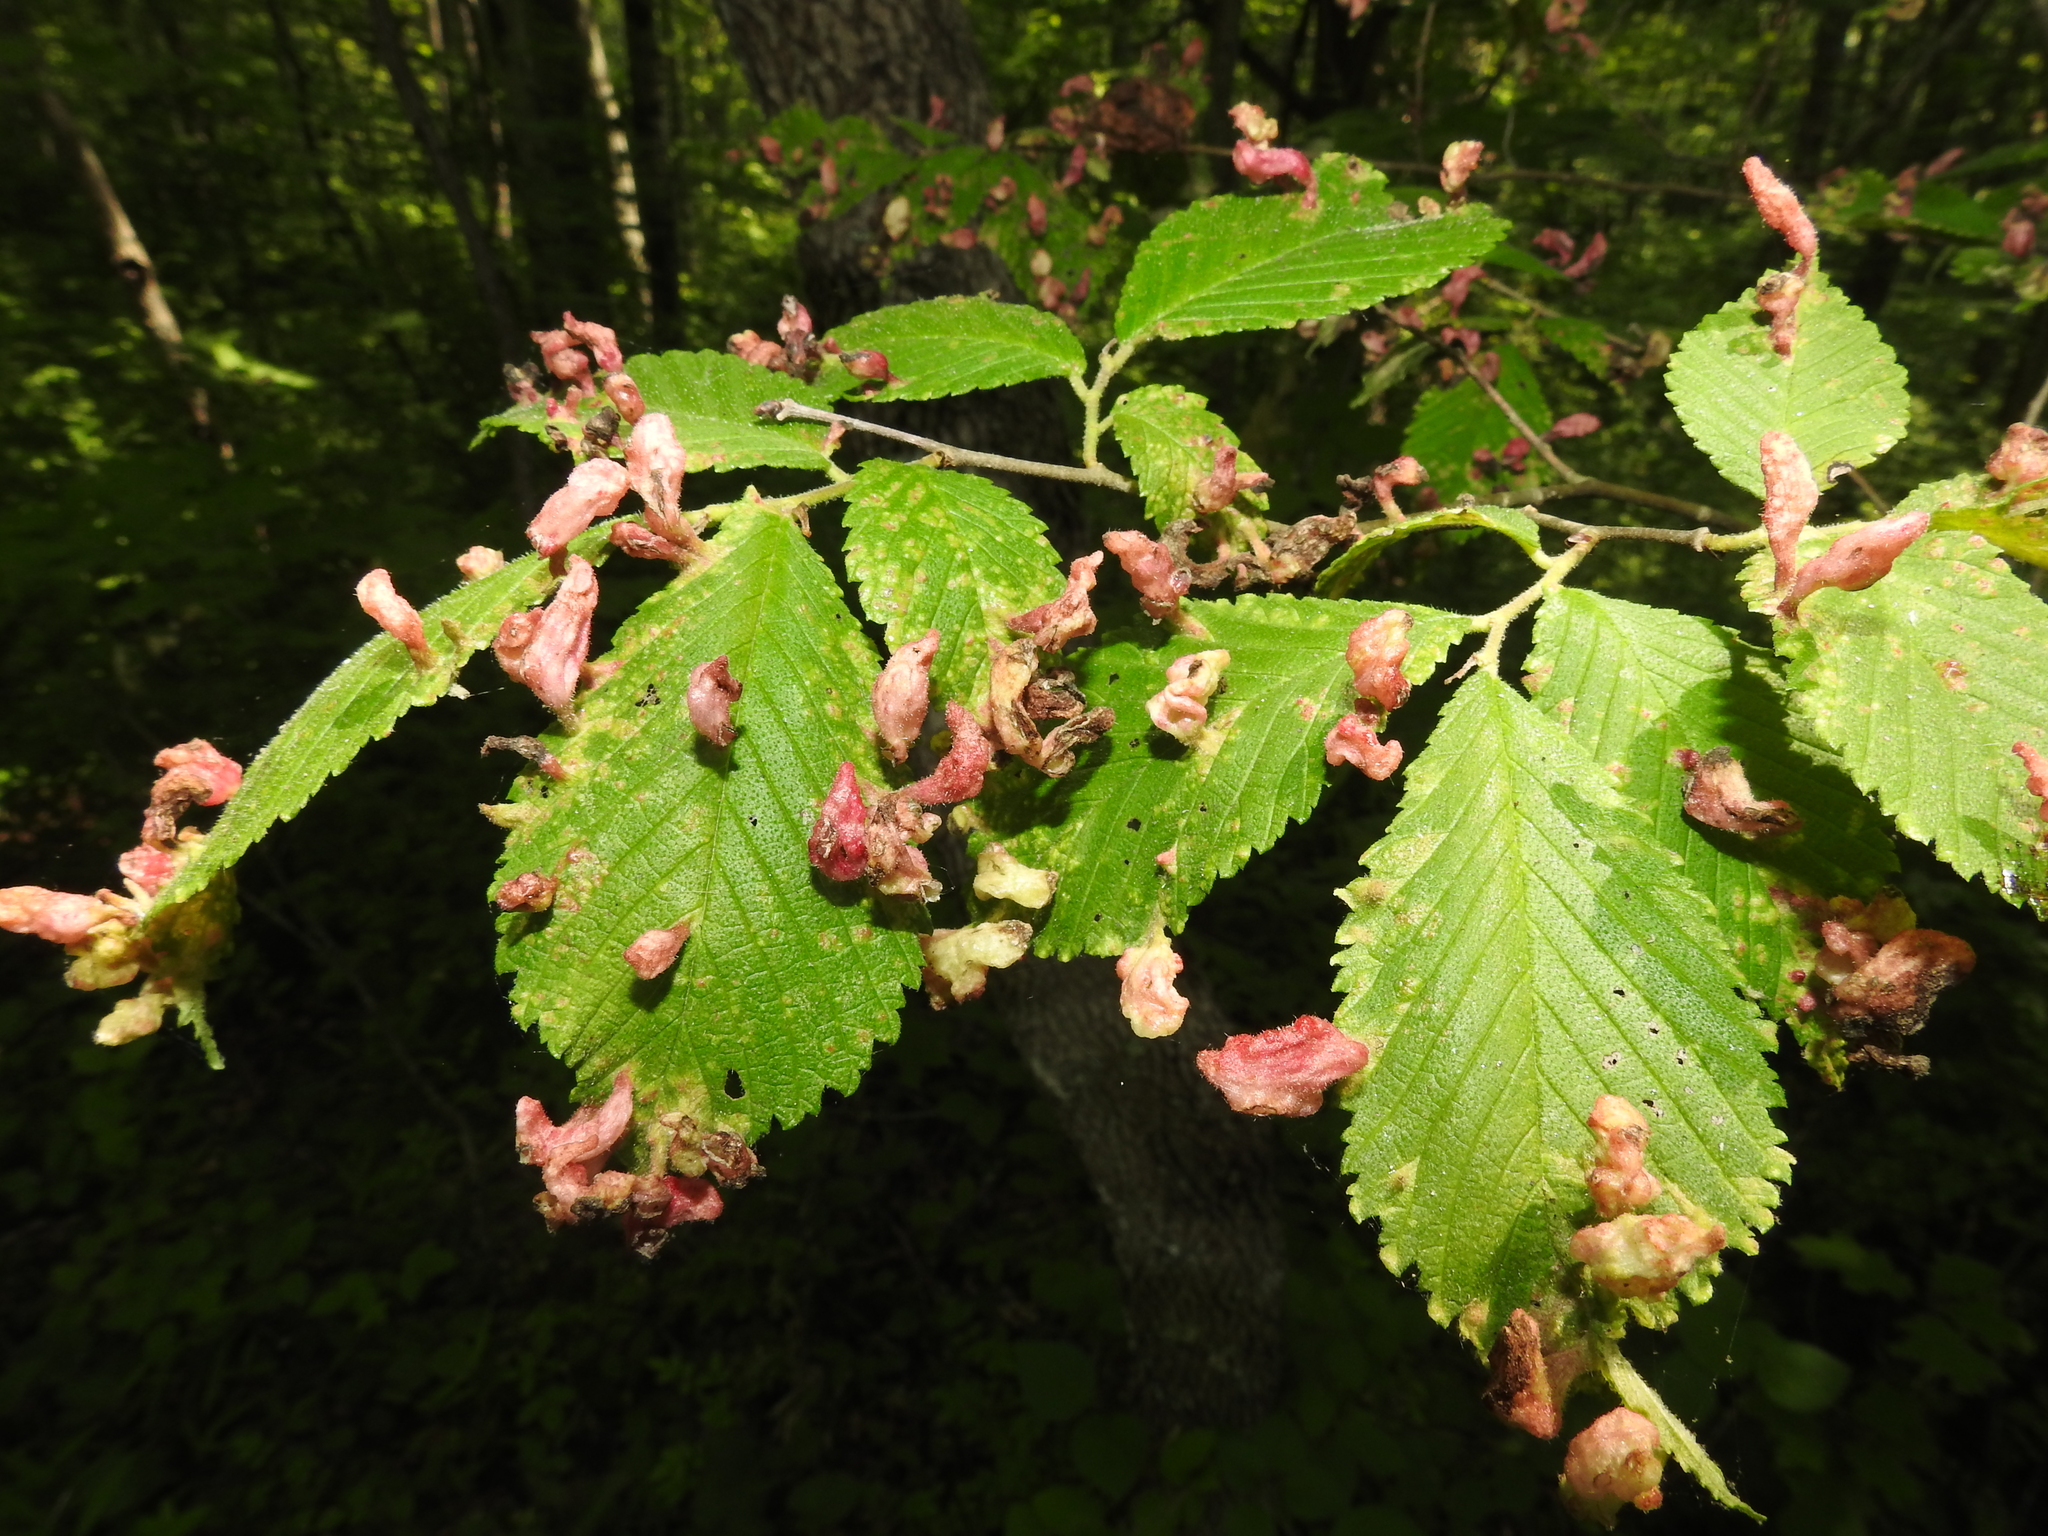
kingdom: Animalia
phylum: Arthropoda
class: Insecta
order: Hemiptera
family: Aphididae
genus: Tetraneura
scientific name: Tetraneura nigriabdominalis
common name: Aphid
